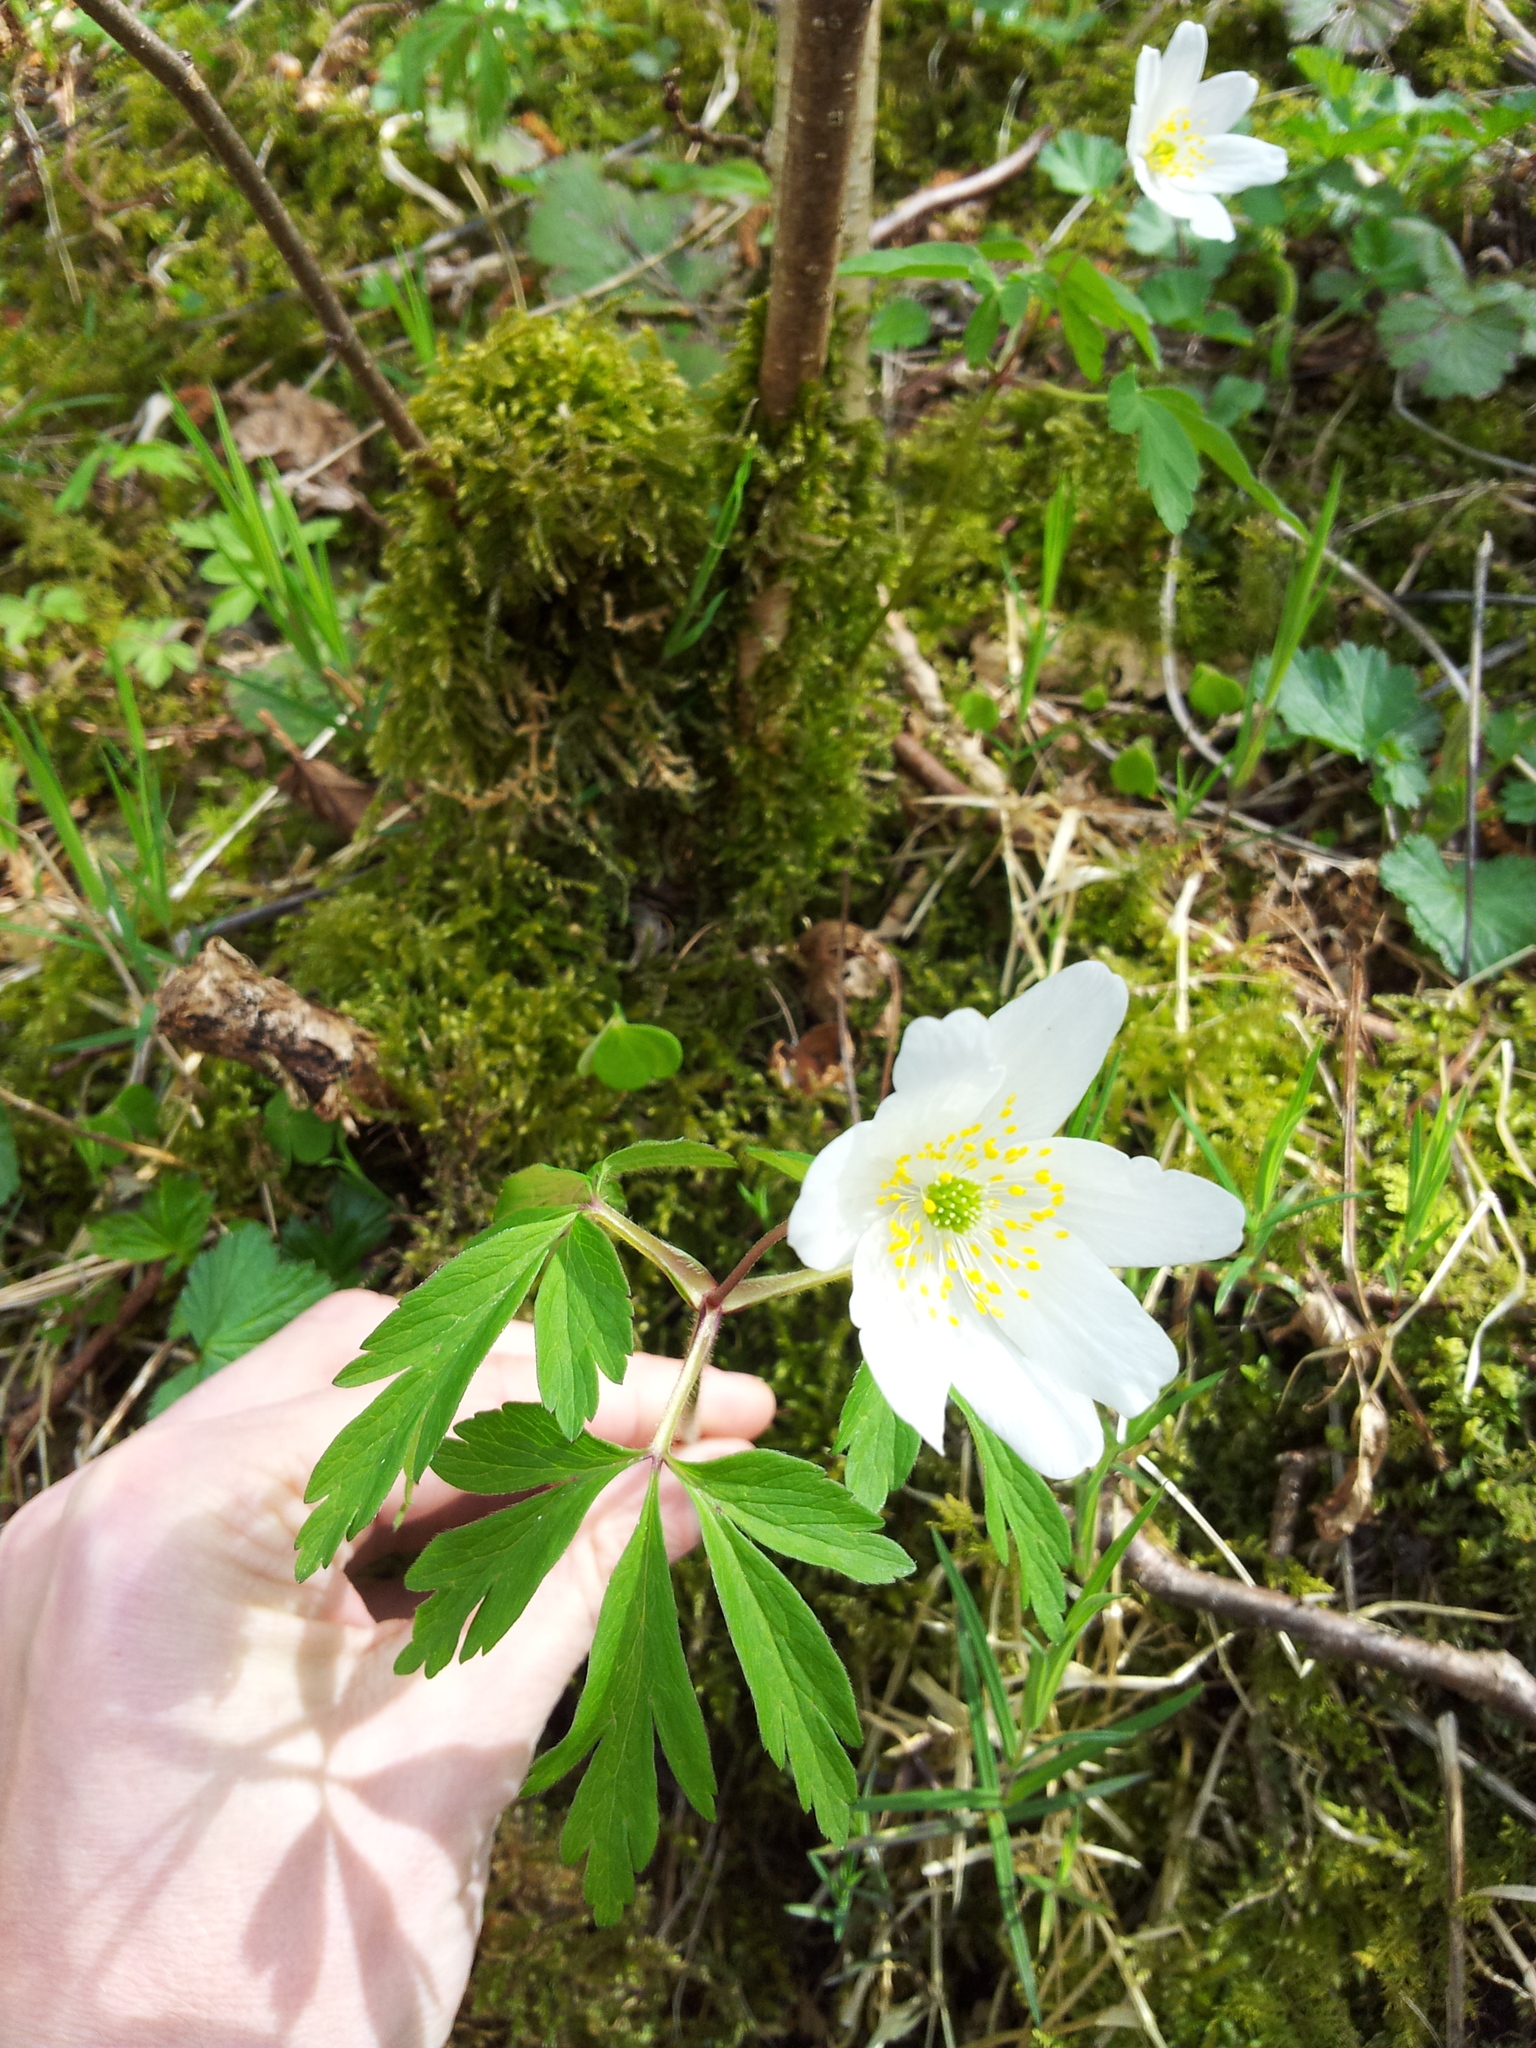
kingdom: Plantae
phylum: Tracheophyta
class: Magnoliopsida
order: Ranunculales
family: Ranunculaceae
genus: Anemone
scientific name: Anemone nemorosa
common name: Wood anemone
